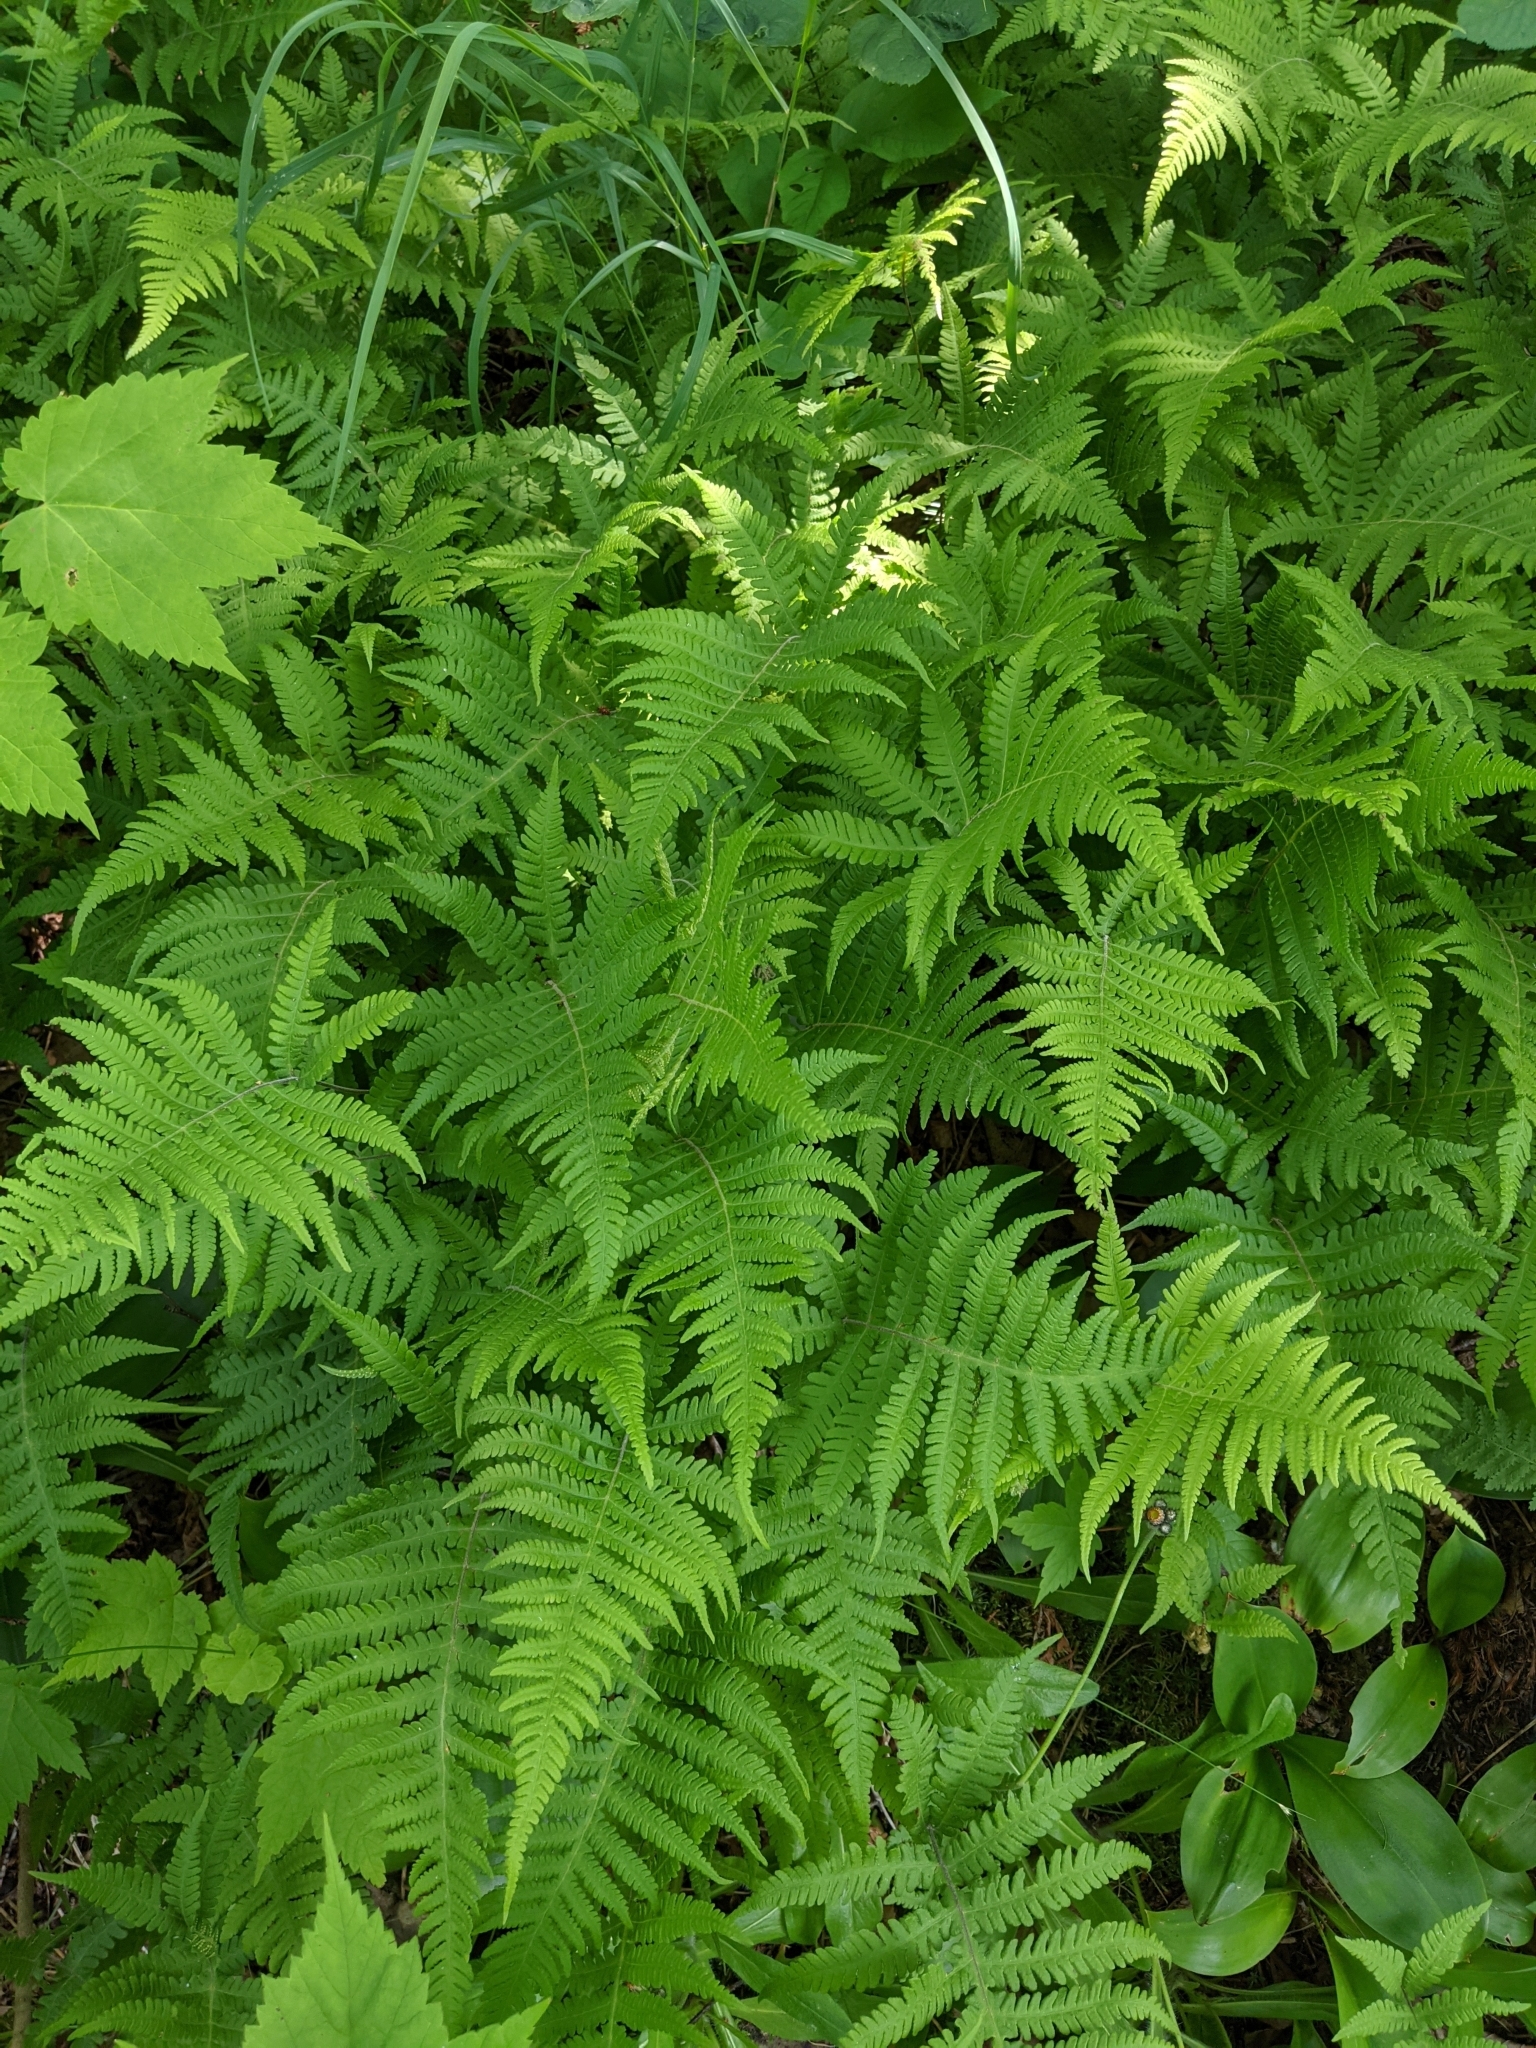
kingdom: Plantae
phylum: Tracheophyta
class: Polypodiopsida
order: Polypodiales
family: Thelypteridaceae
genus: Phegopteris
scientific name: Phegopteris connectilis
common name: Beech fern
